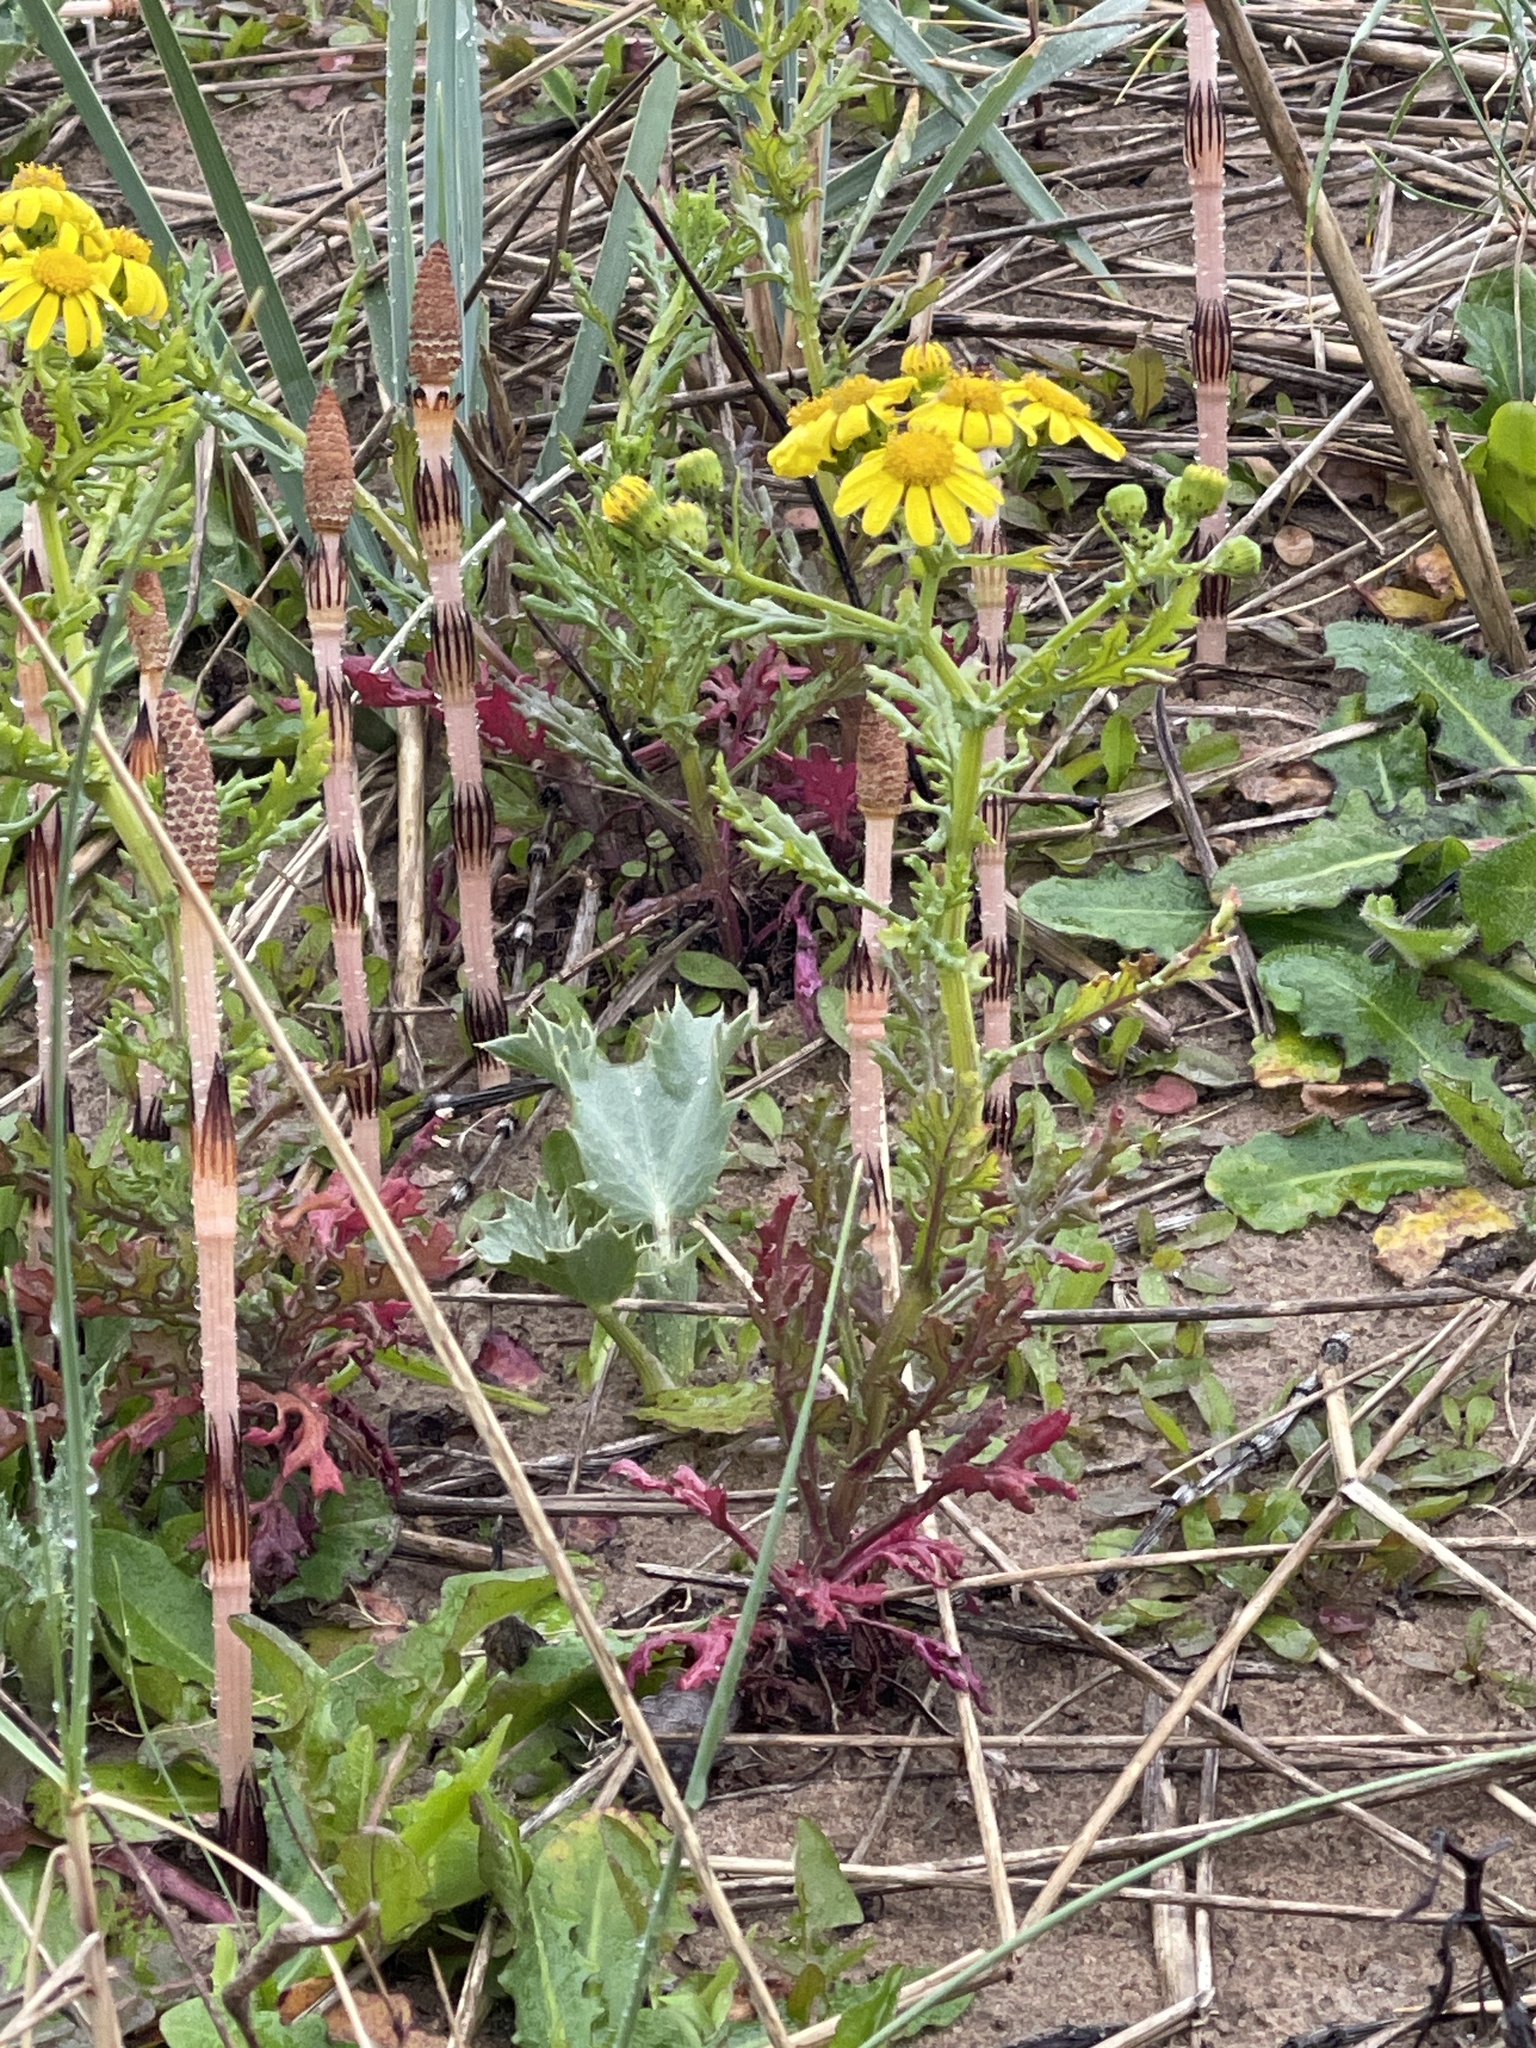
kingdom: Plantae
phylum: Tracheophyta
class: Magnoliopsida
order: Asterales
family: Asteraceae
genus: Senecio
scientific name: Senecio squalidus
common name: Oxford ragwort
